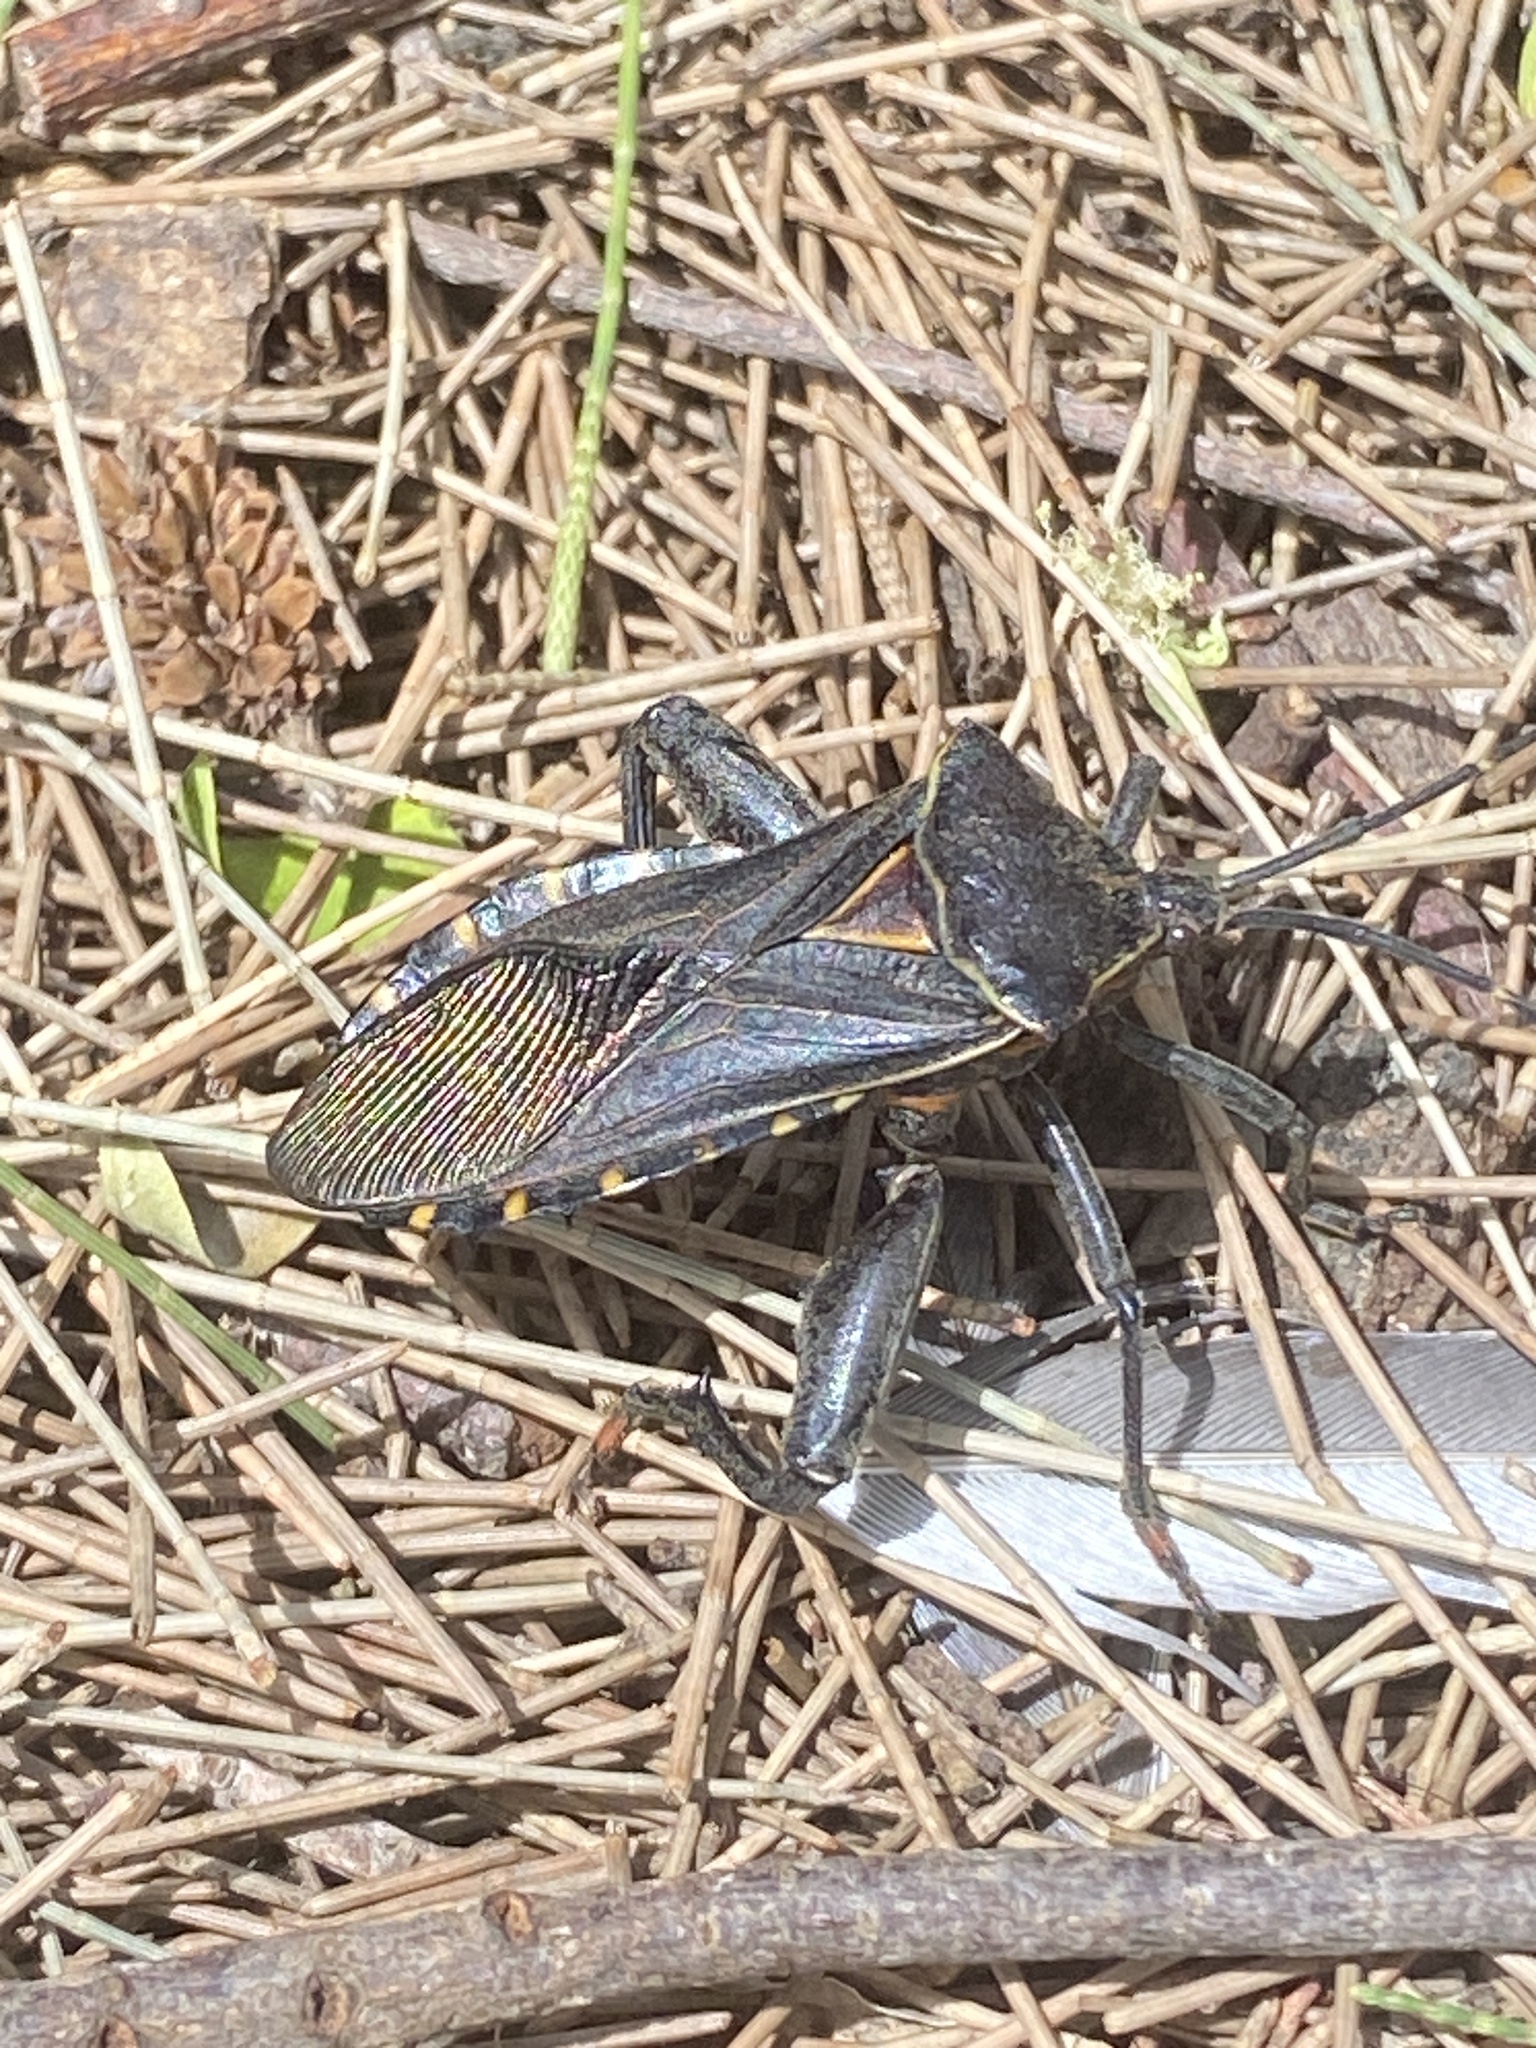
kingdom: Animalia
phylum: Arthropoda
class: Insecta
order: Hemiptera
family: Coreidae
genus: Pachylis
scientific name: Pachylis argentinus
